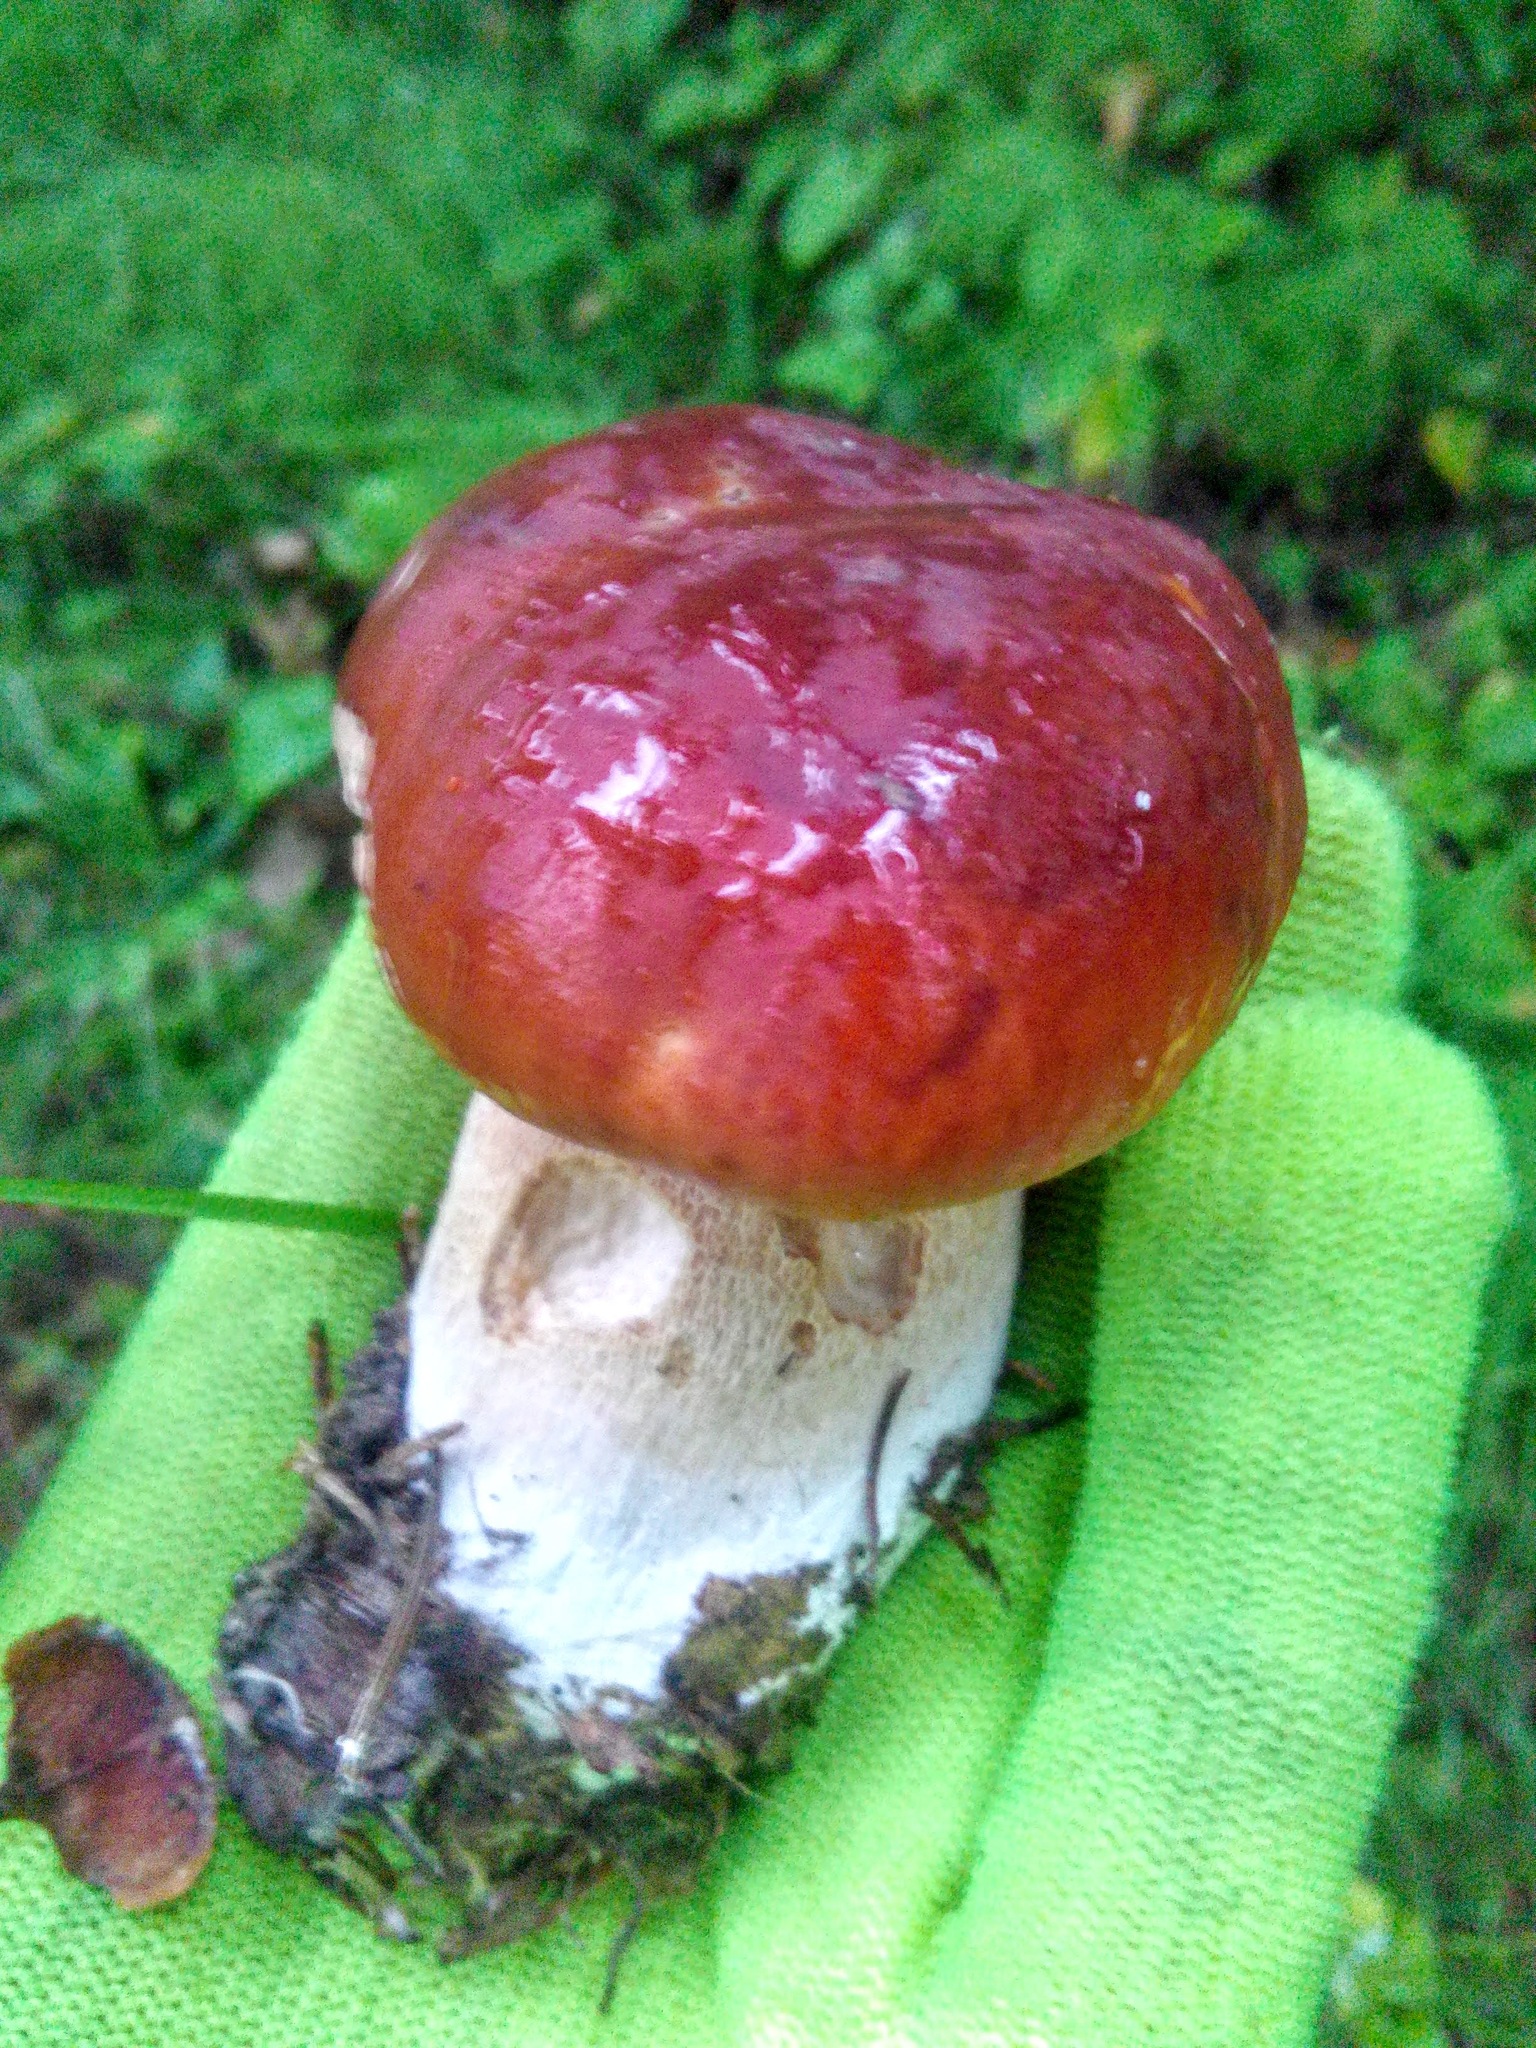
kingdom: Fungi
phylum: Basidiomycota
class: Agaricomycetes
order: Boletales
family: Boletaceae
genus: Boletus
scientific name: Boletus pinophilus
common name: Pine bolete
